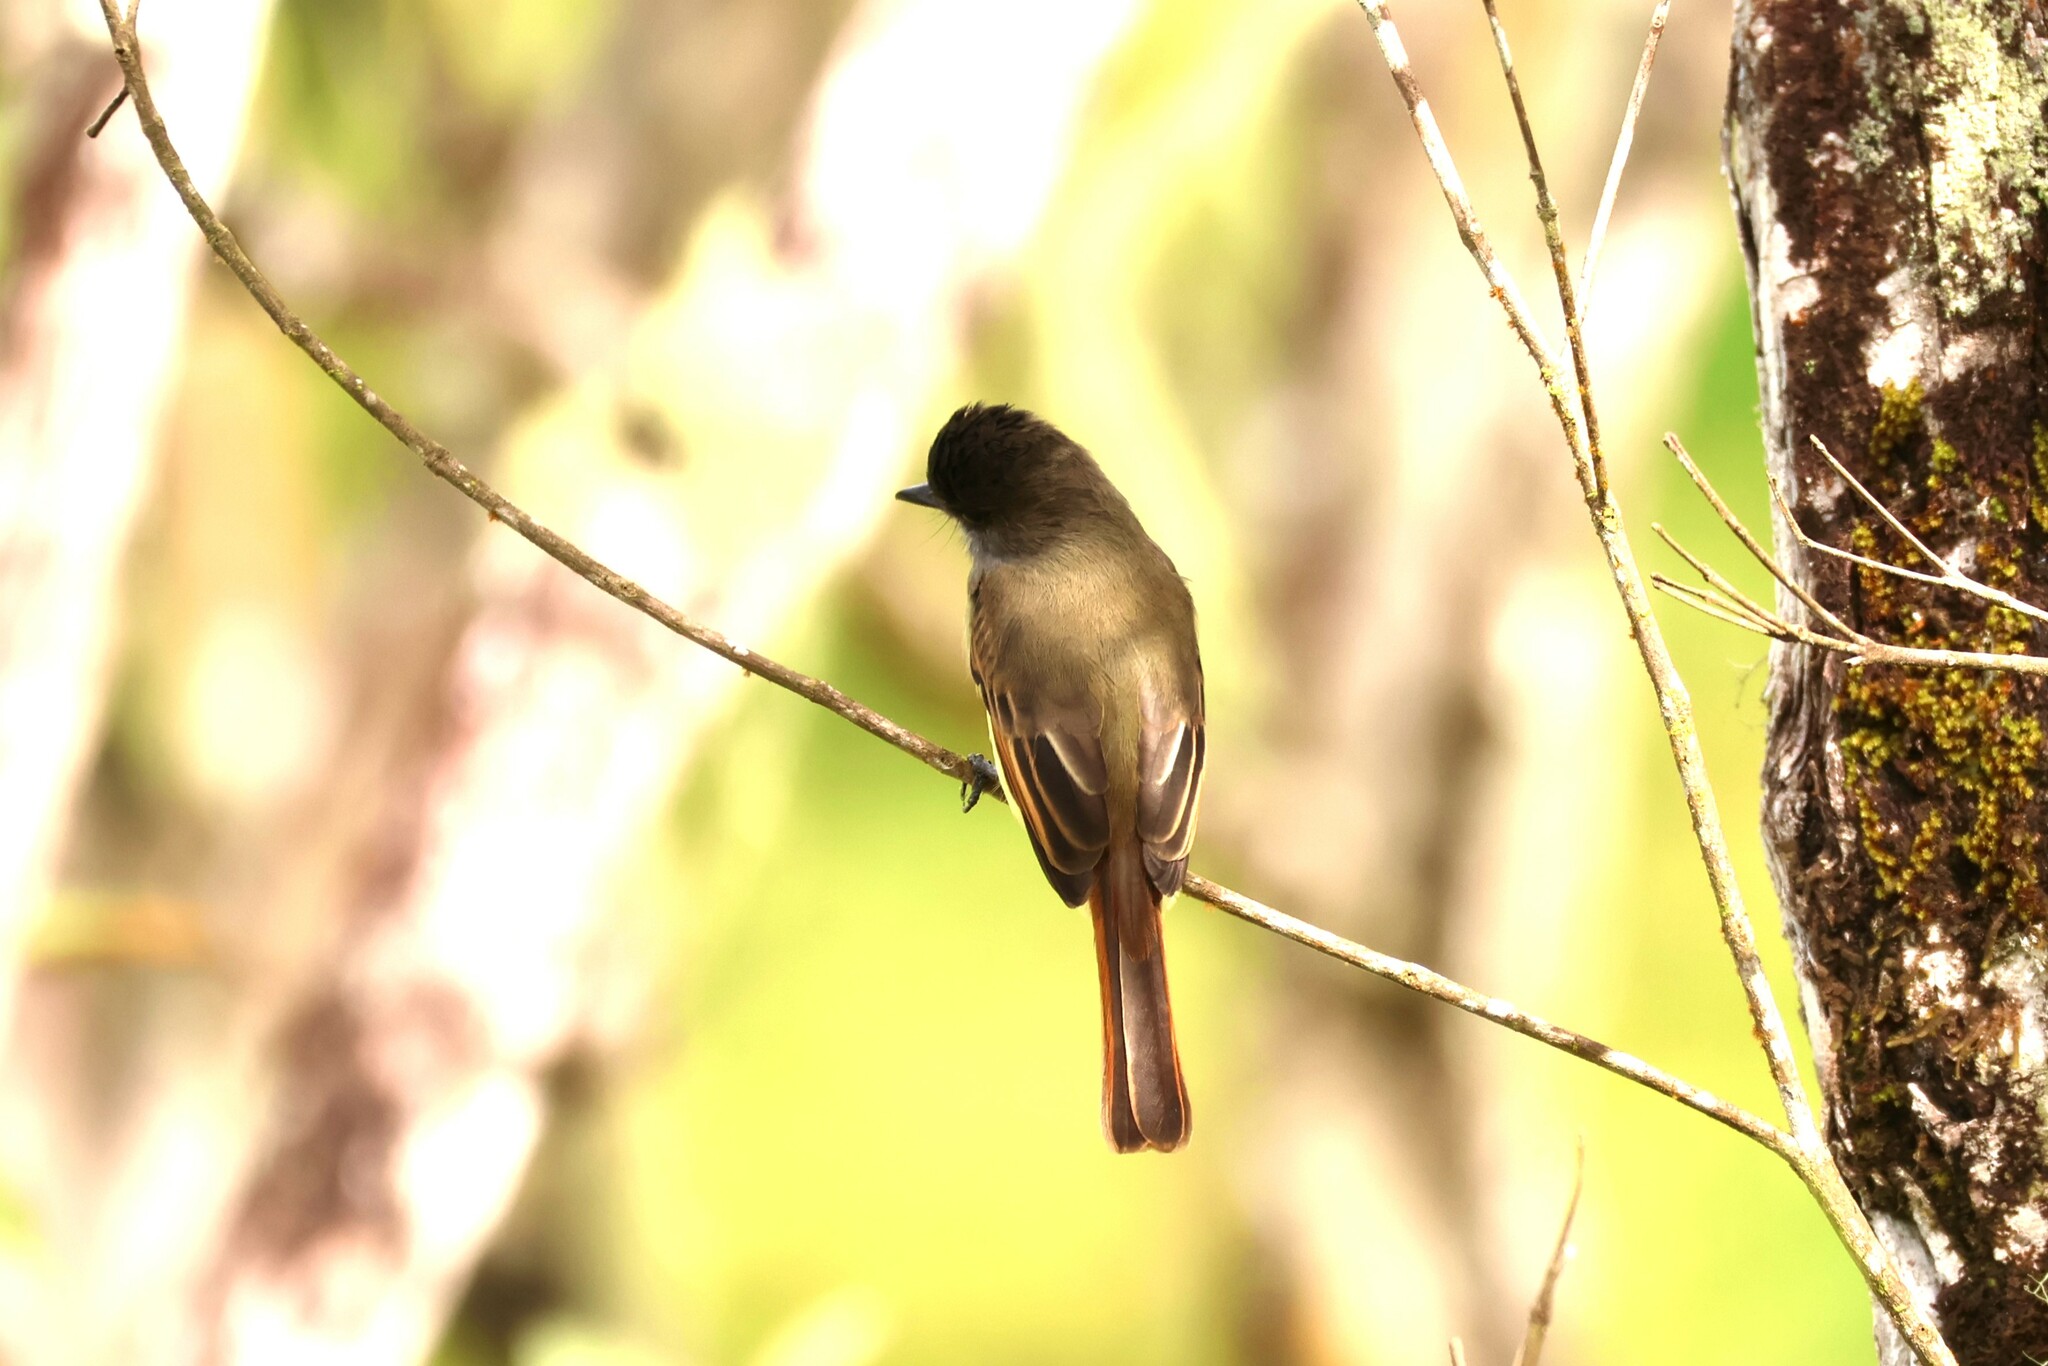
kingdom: Animalia
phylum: Chordata
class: Aves
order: Passeriformes
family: Tyrannidae
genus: Myiarchus
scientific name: Myiarchus tuberculifer
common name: Dusky-capped flycatcher
